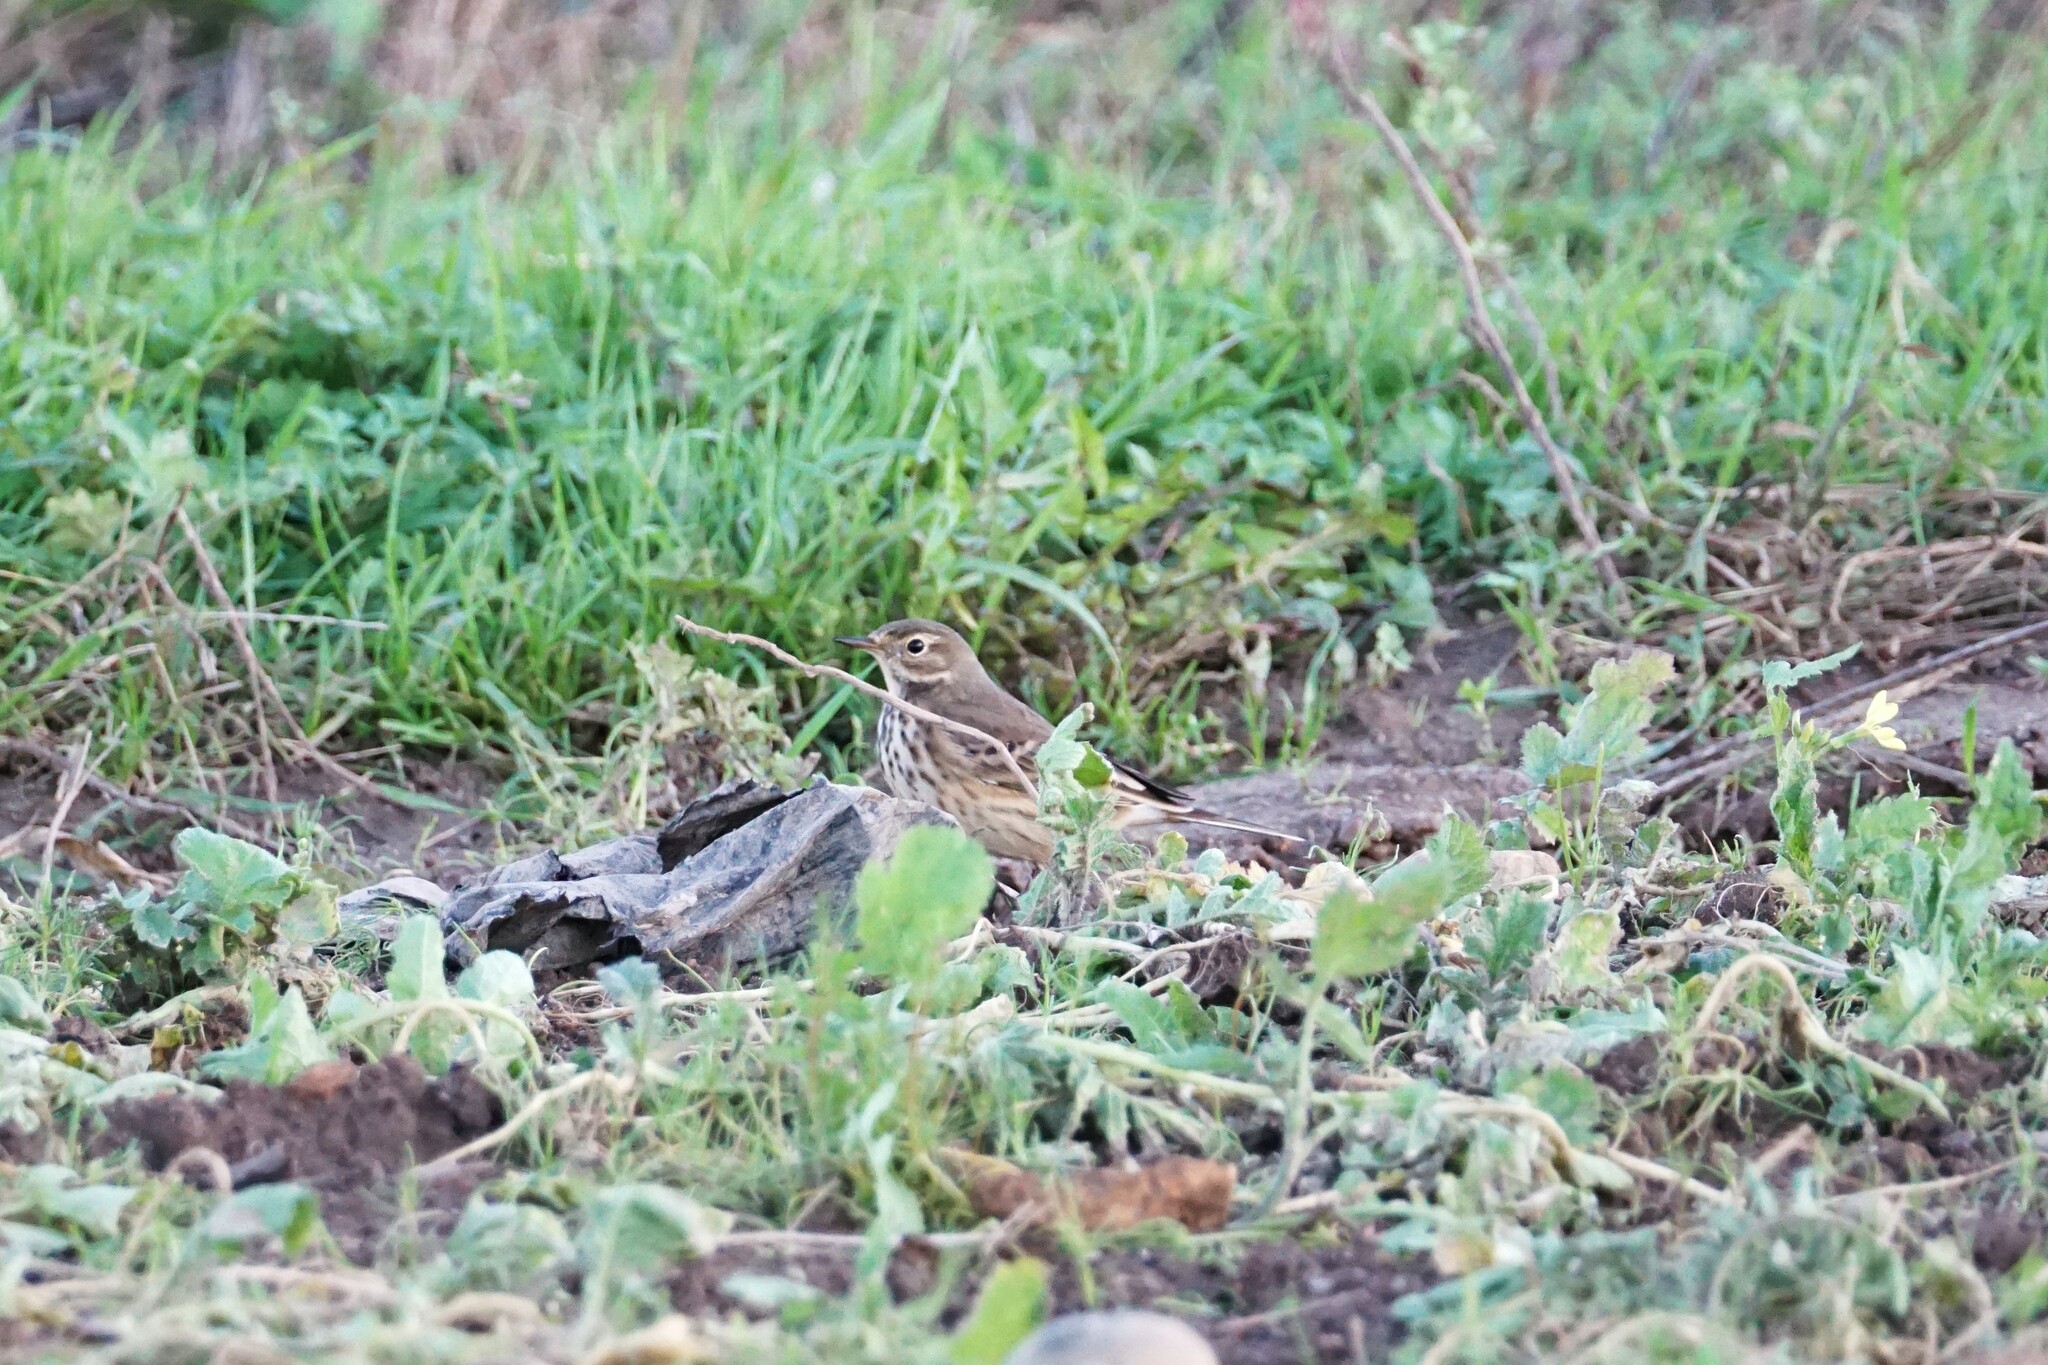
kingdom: Animalia
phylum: Chordata
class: Aves
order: Passeriformes
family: Motacillidae
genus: Anthus
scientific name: Anthus rubescens
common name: Buff-bellied pipit
